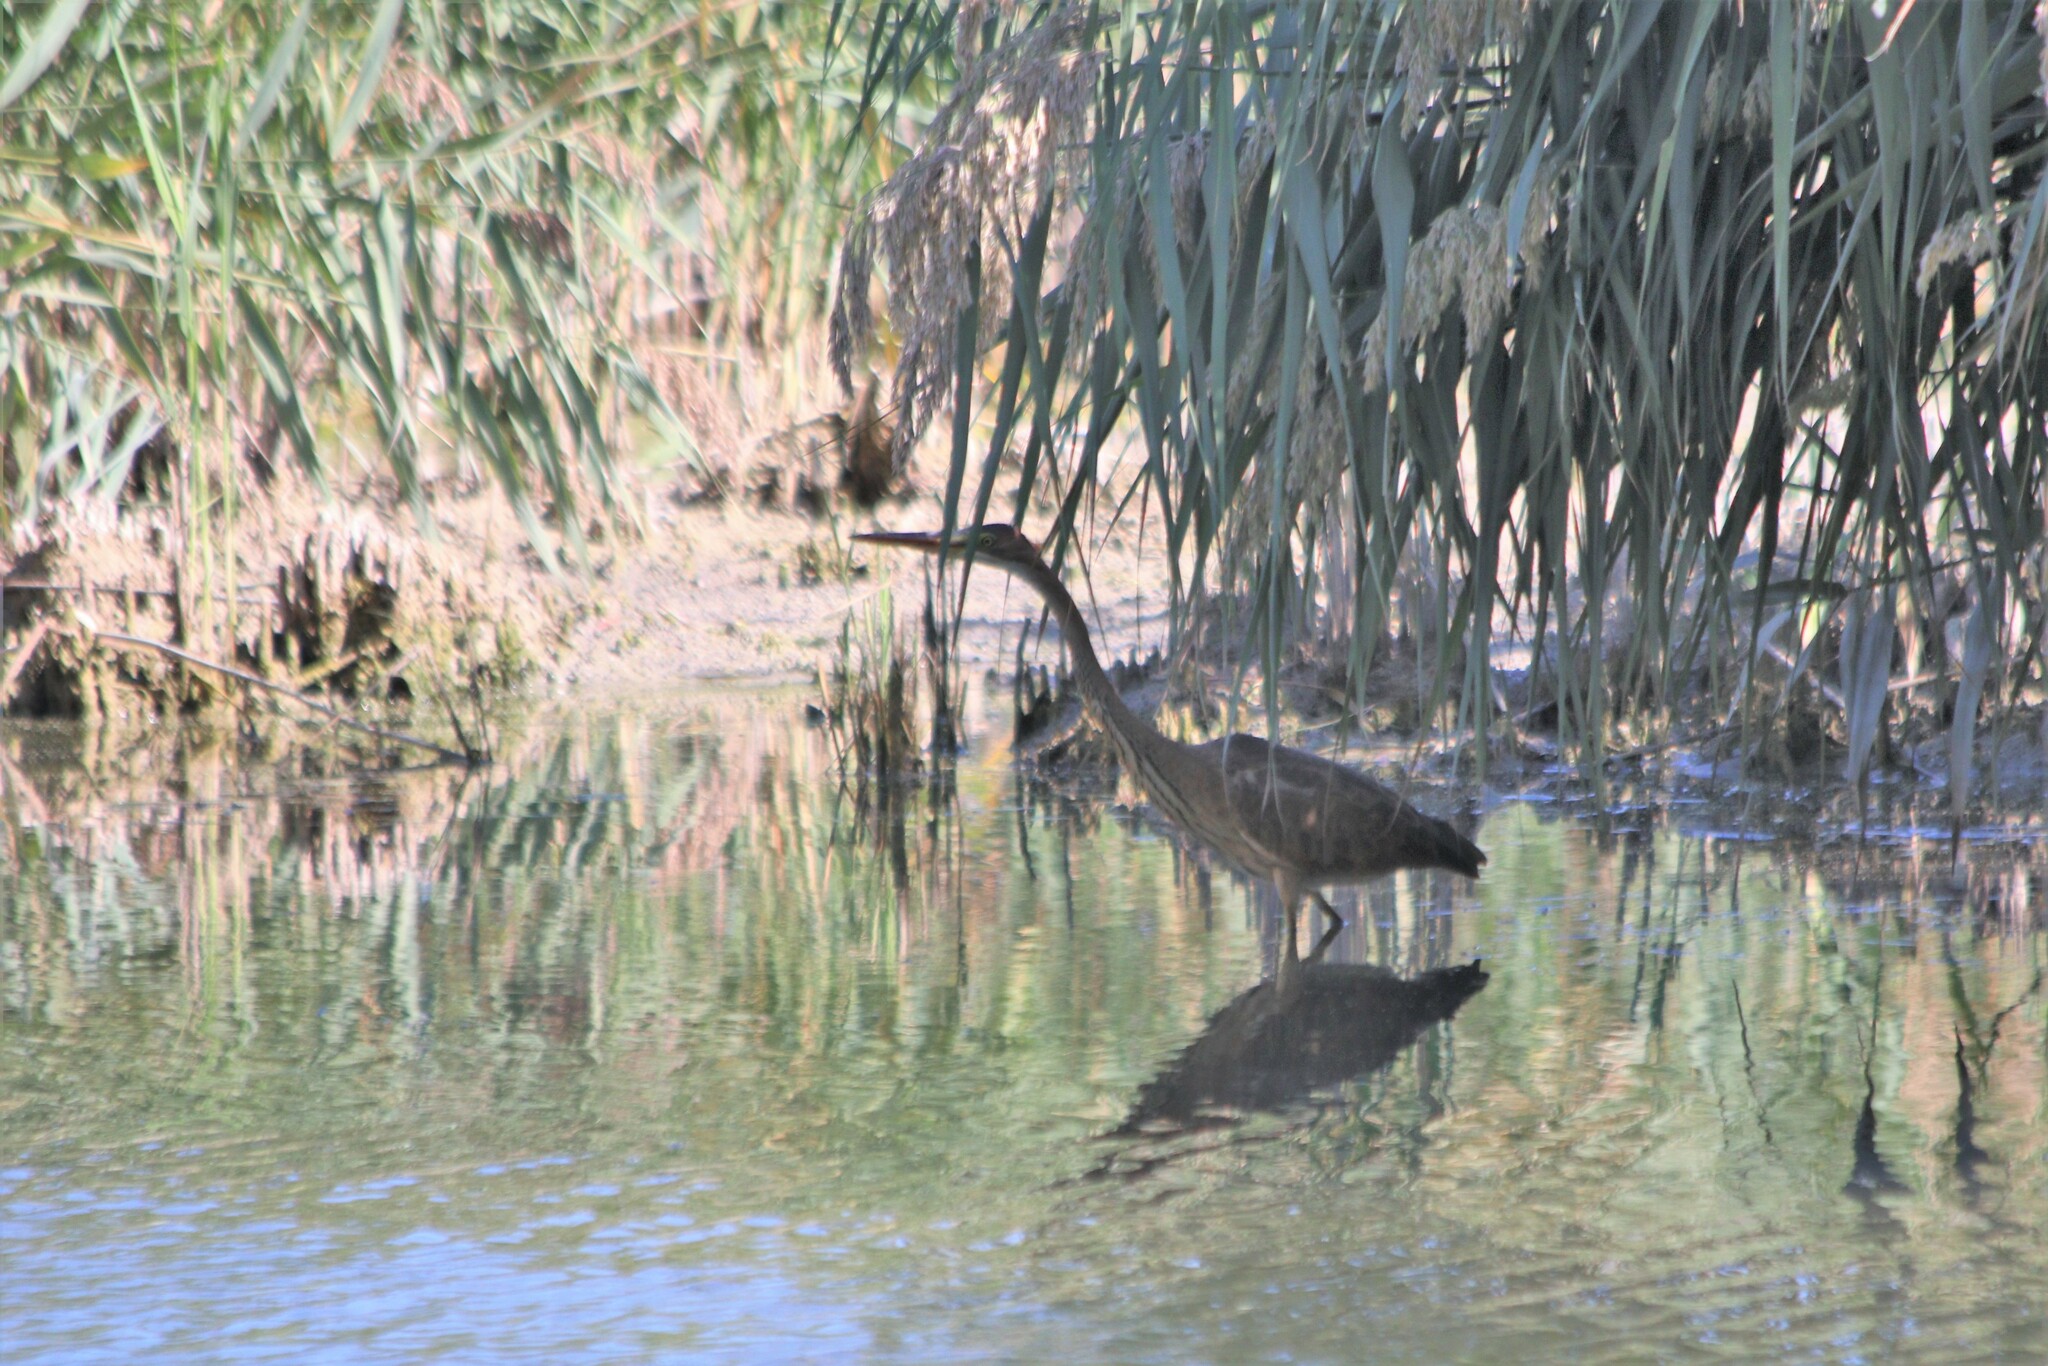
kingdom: Animalia
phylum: Chordata
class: Aves
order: Pelecaniformes
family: Ardeidae
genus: Ardea
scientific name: Ardea purpurea
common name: Purple heron
